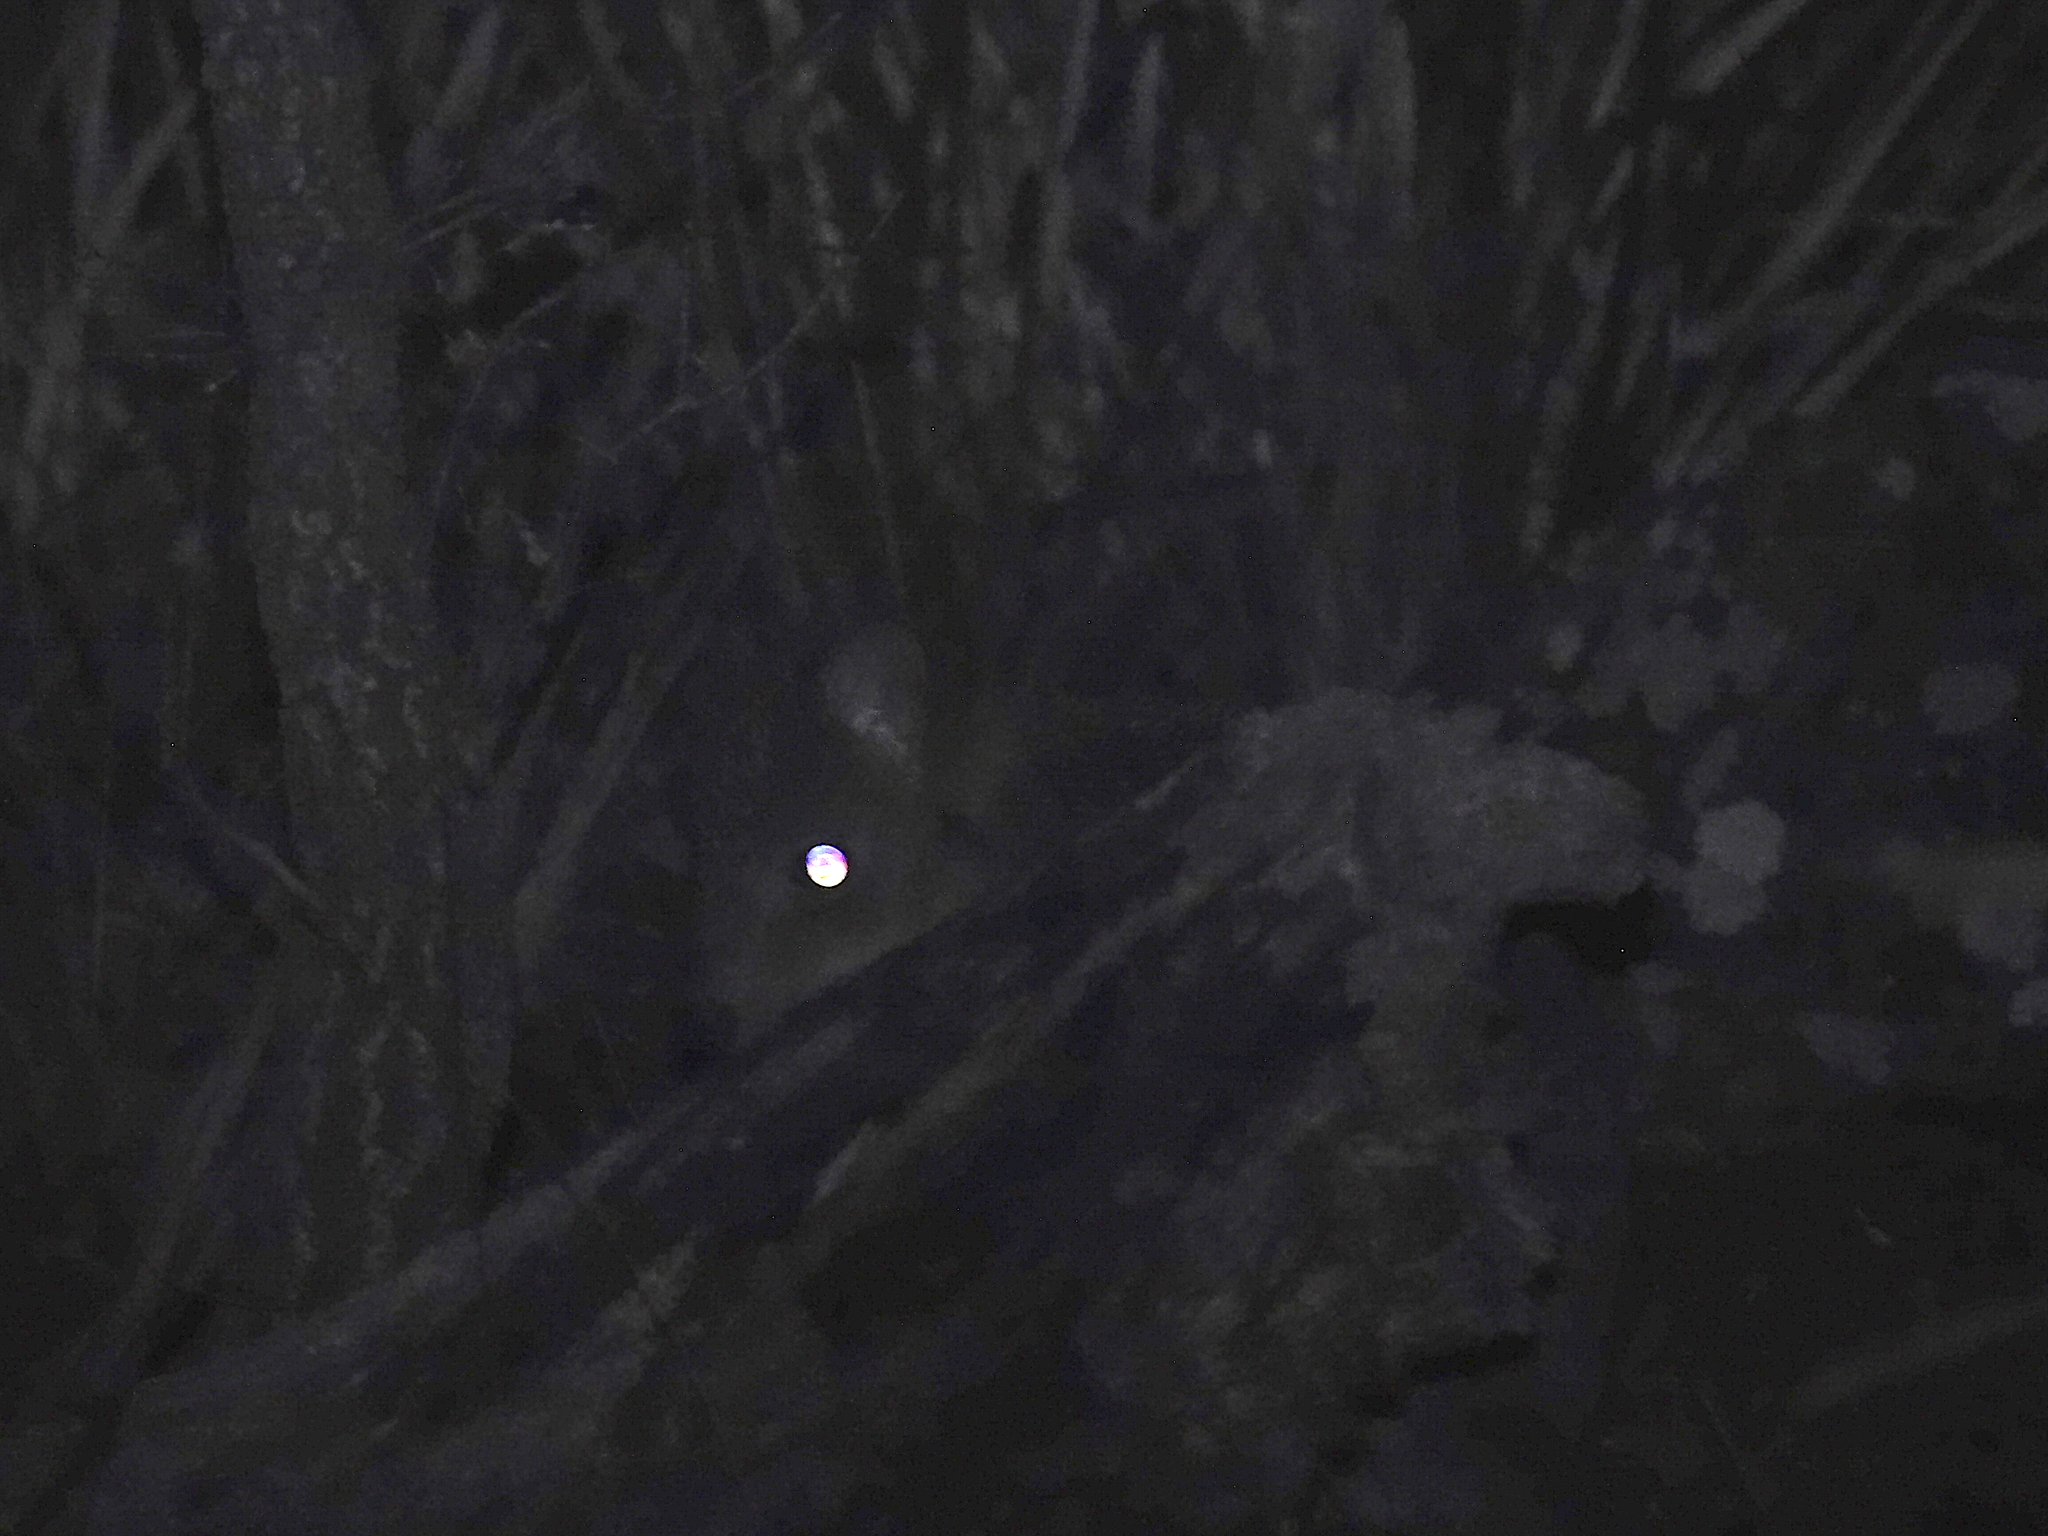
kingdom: Animalia
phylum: Chordata
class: Mammalia
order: Diprotodontia
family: Potoroidae
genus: Bettongia
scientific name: Bettongia gaimardi
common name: Eastern bettong
